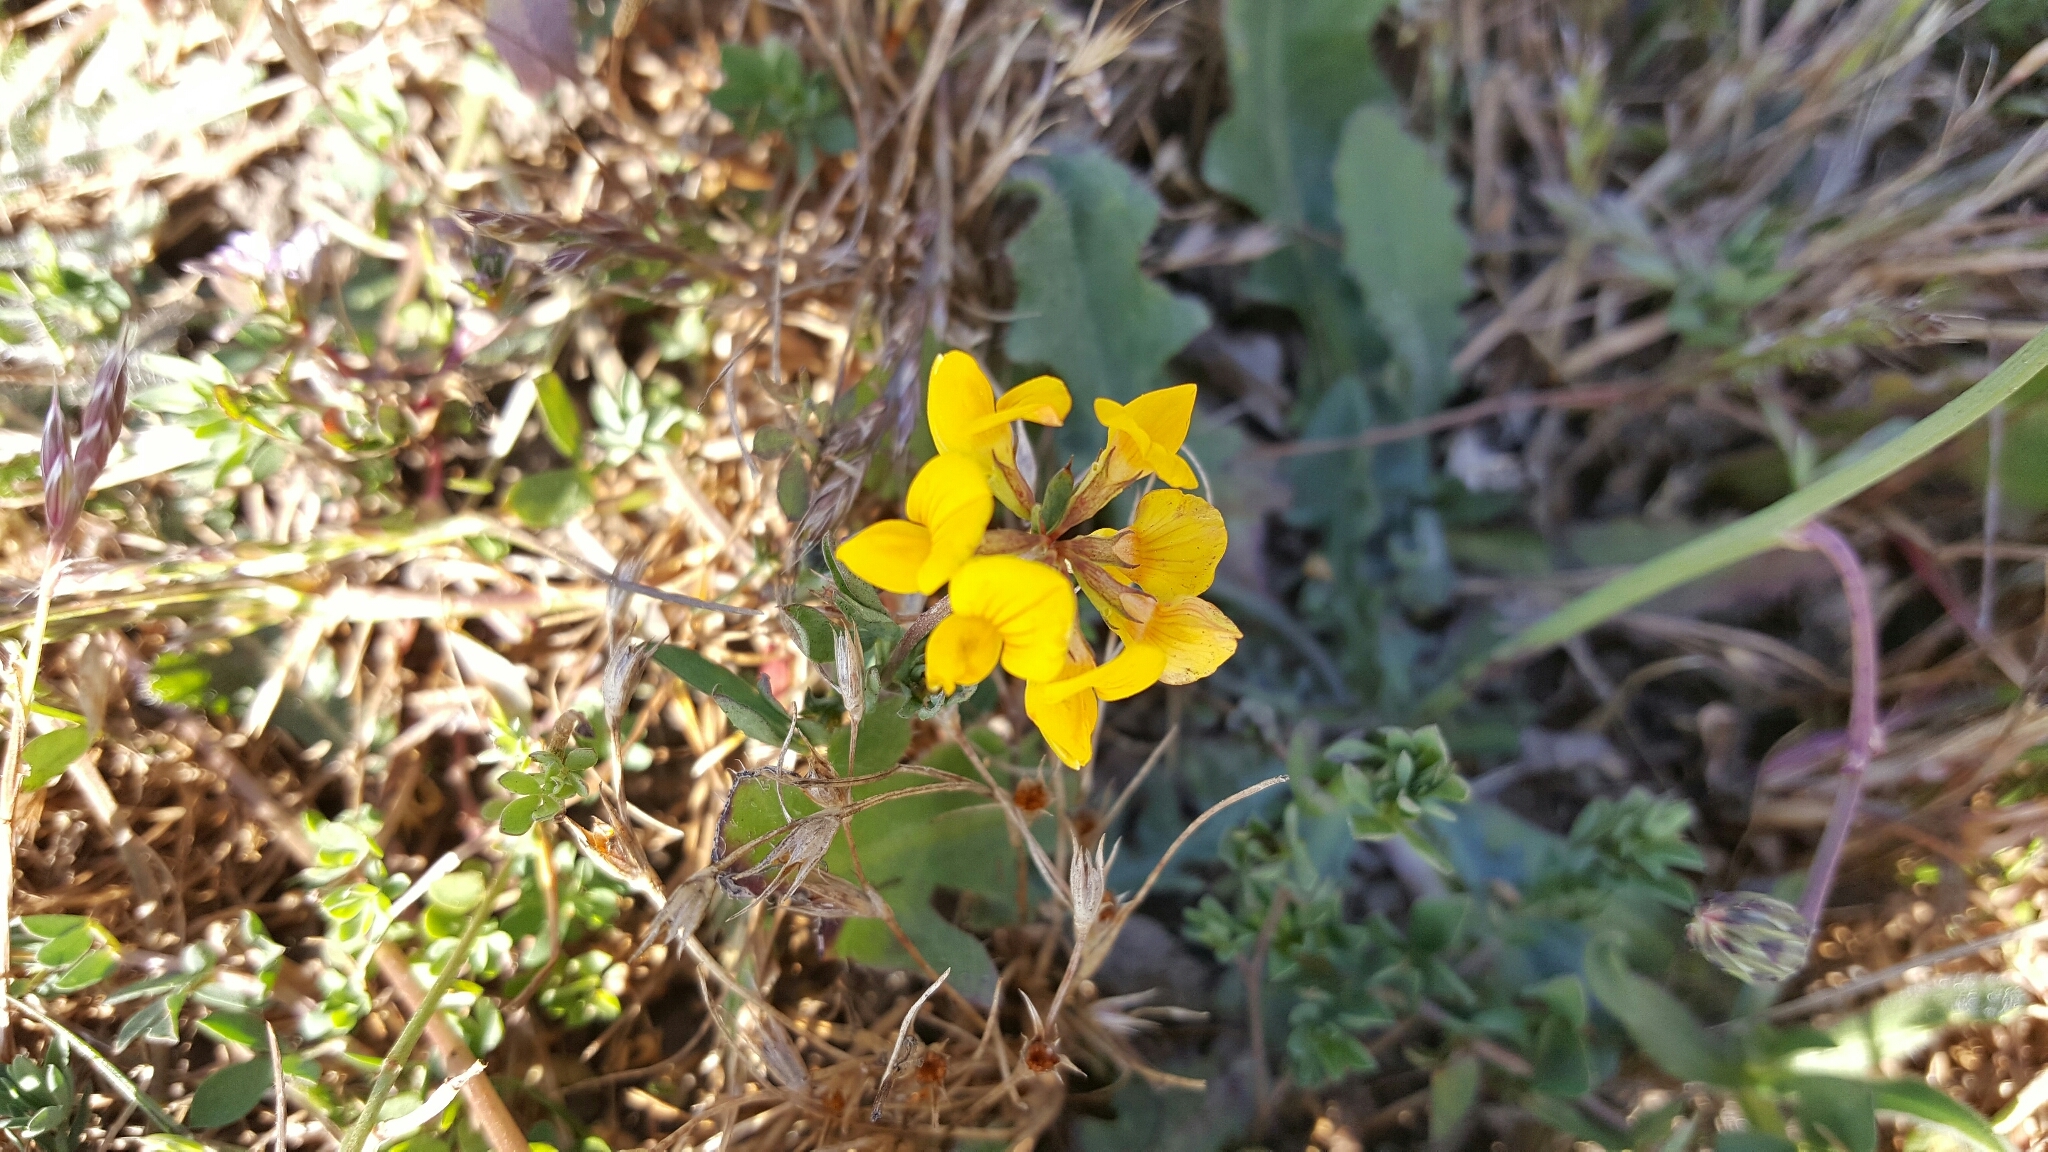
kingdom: Plantae
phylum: Tracheophyta
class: Magnoliopsida
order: Fabales
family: Fabaceae
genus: Lotus
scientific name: Lotus corniculatus
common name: Common bird's-foot-trefoil
